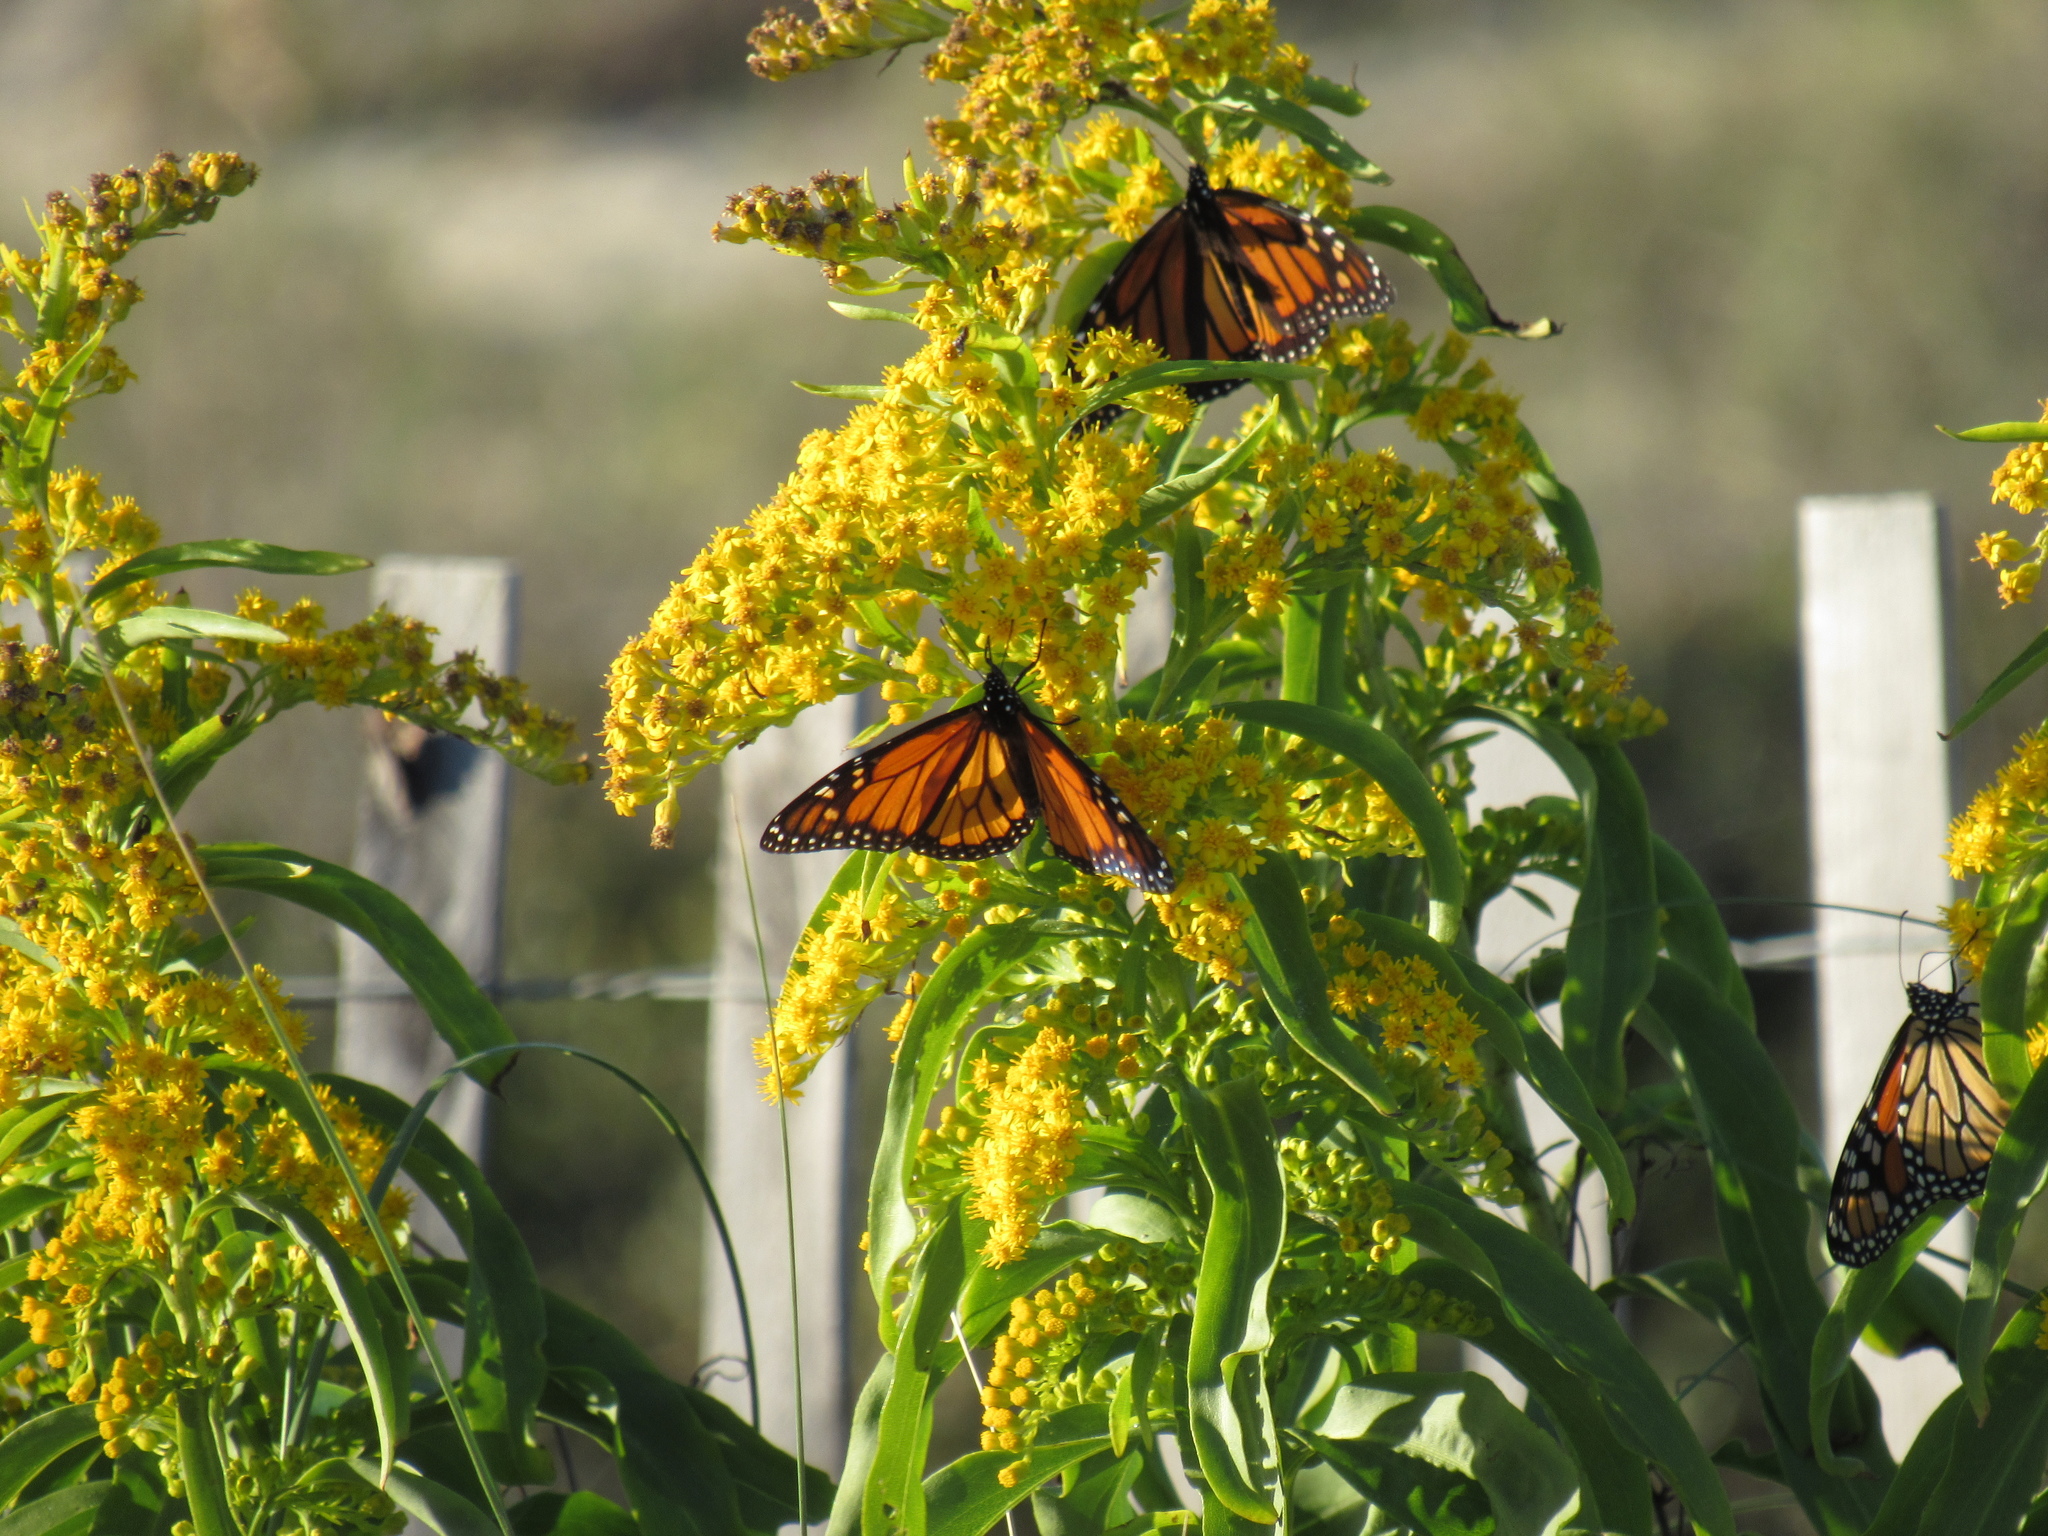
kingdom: Animalia
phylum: Arthropoda
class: Insecta
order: Lepidoptera
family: Nymphalidae
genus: Danaus
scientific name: Danaus plexippus
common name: Monarch
